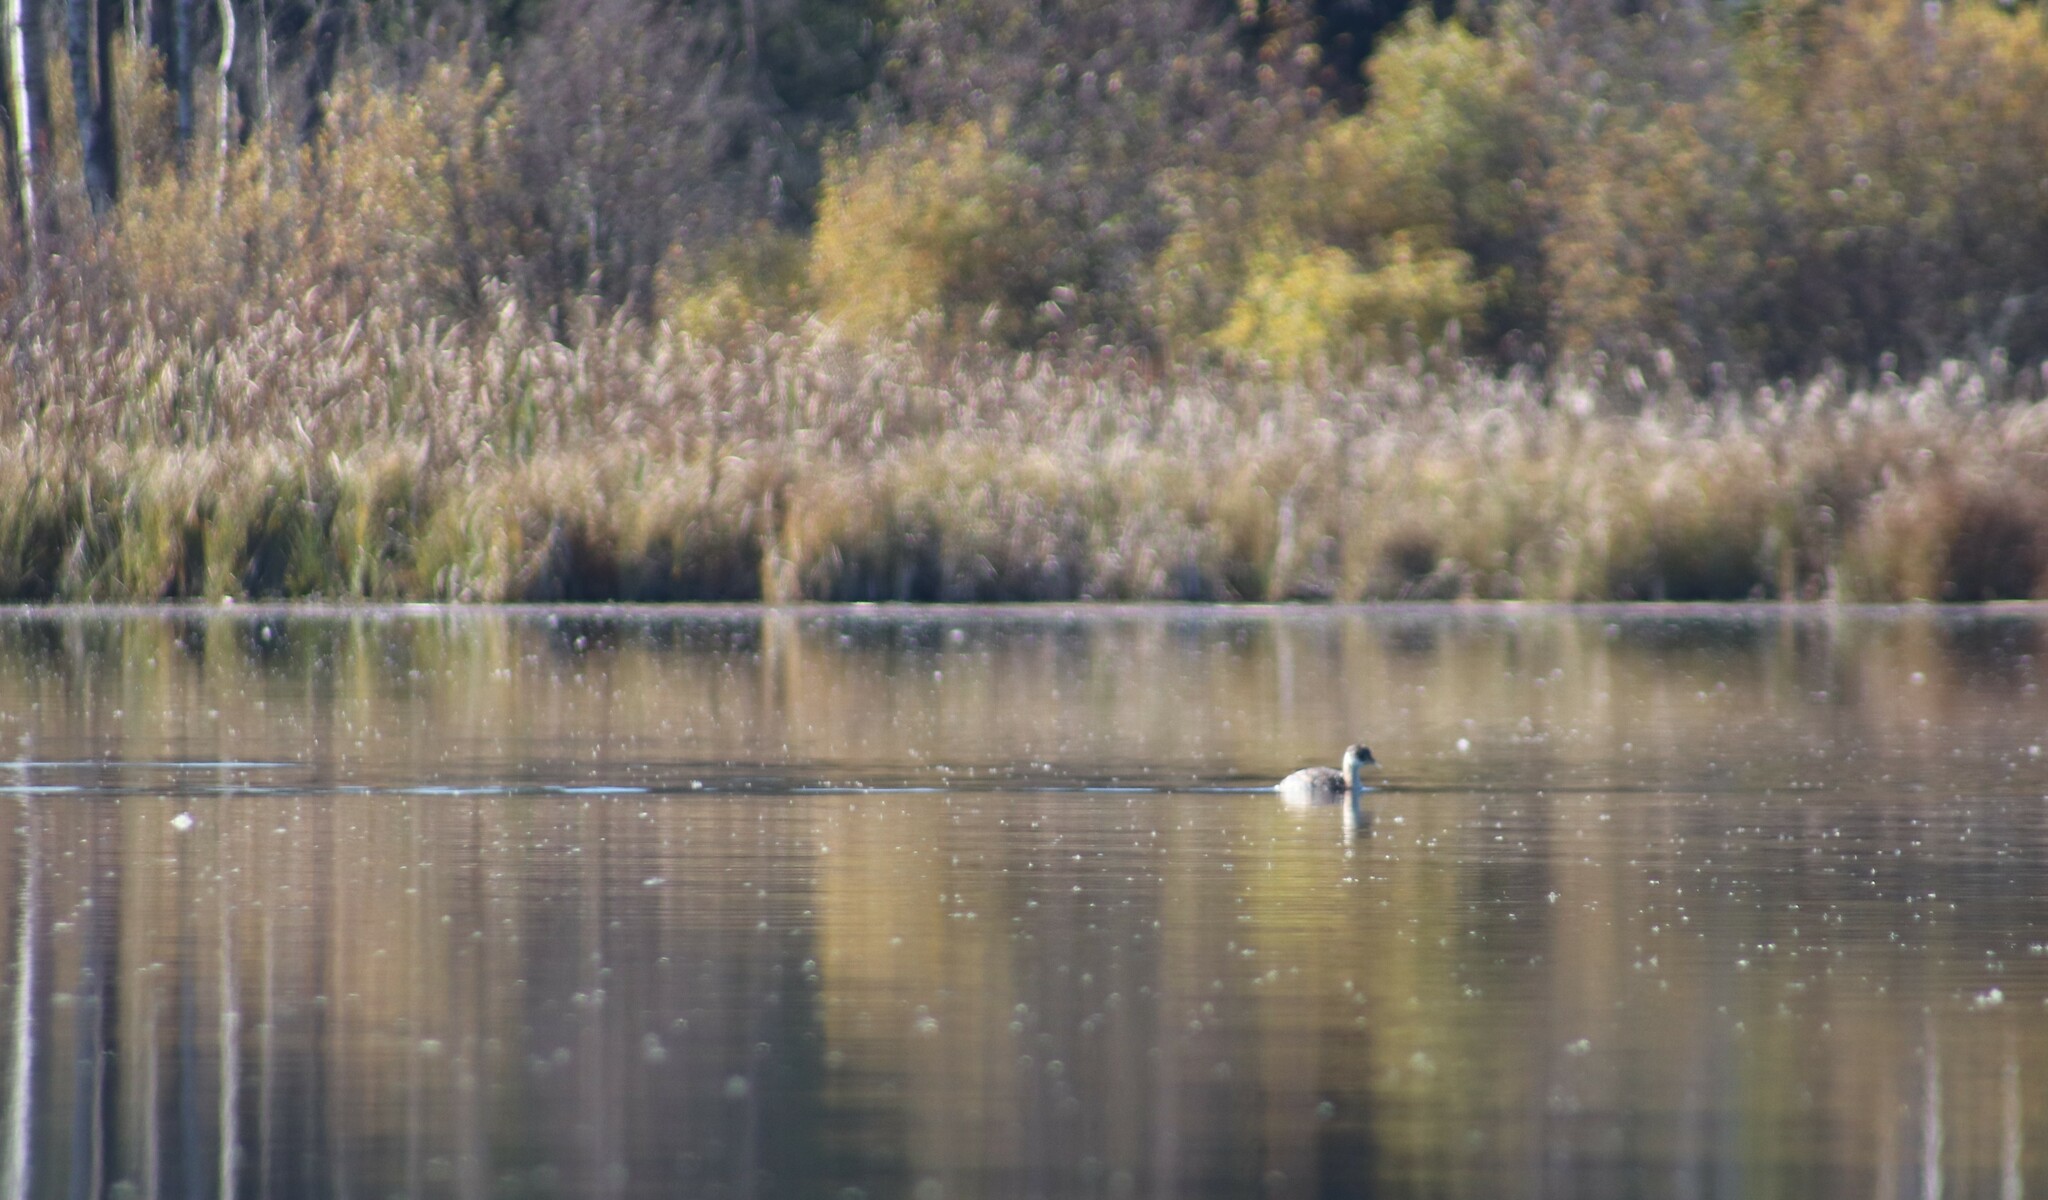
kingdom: Animalia
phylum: Chordata
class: Aves
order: Podicipediformes
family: Podicipedidae
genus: Podiceps
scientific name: Podiceps grisegena
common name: Red-necked grebe
